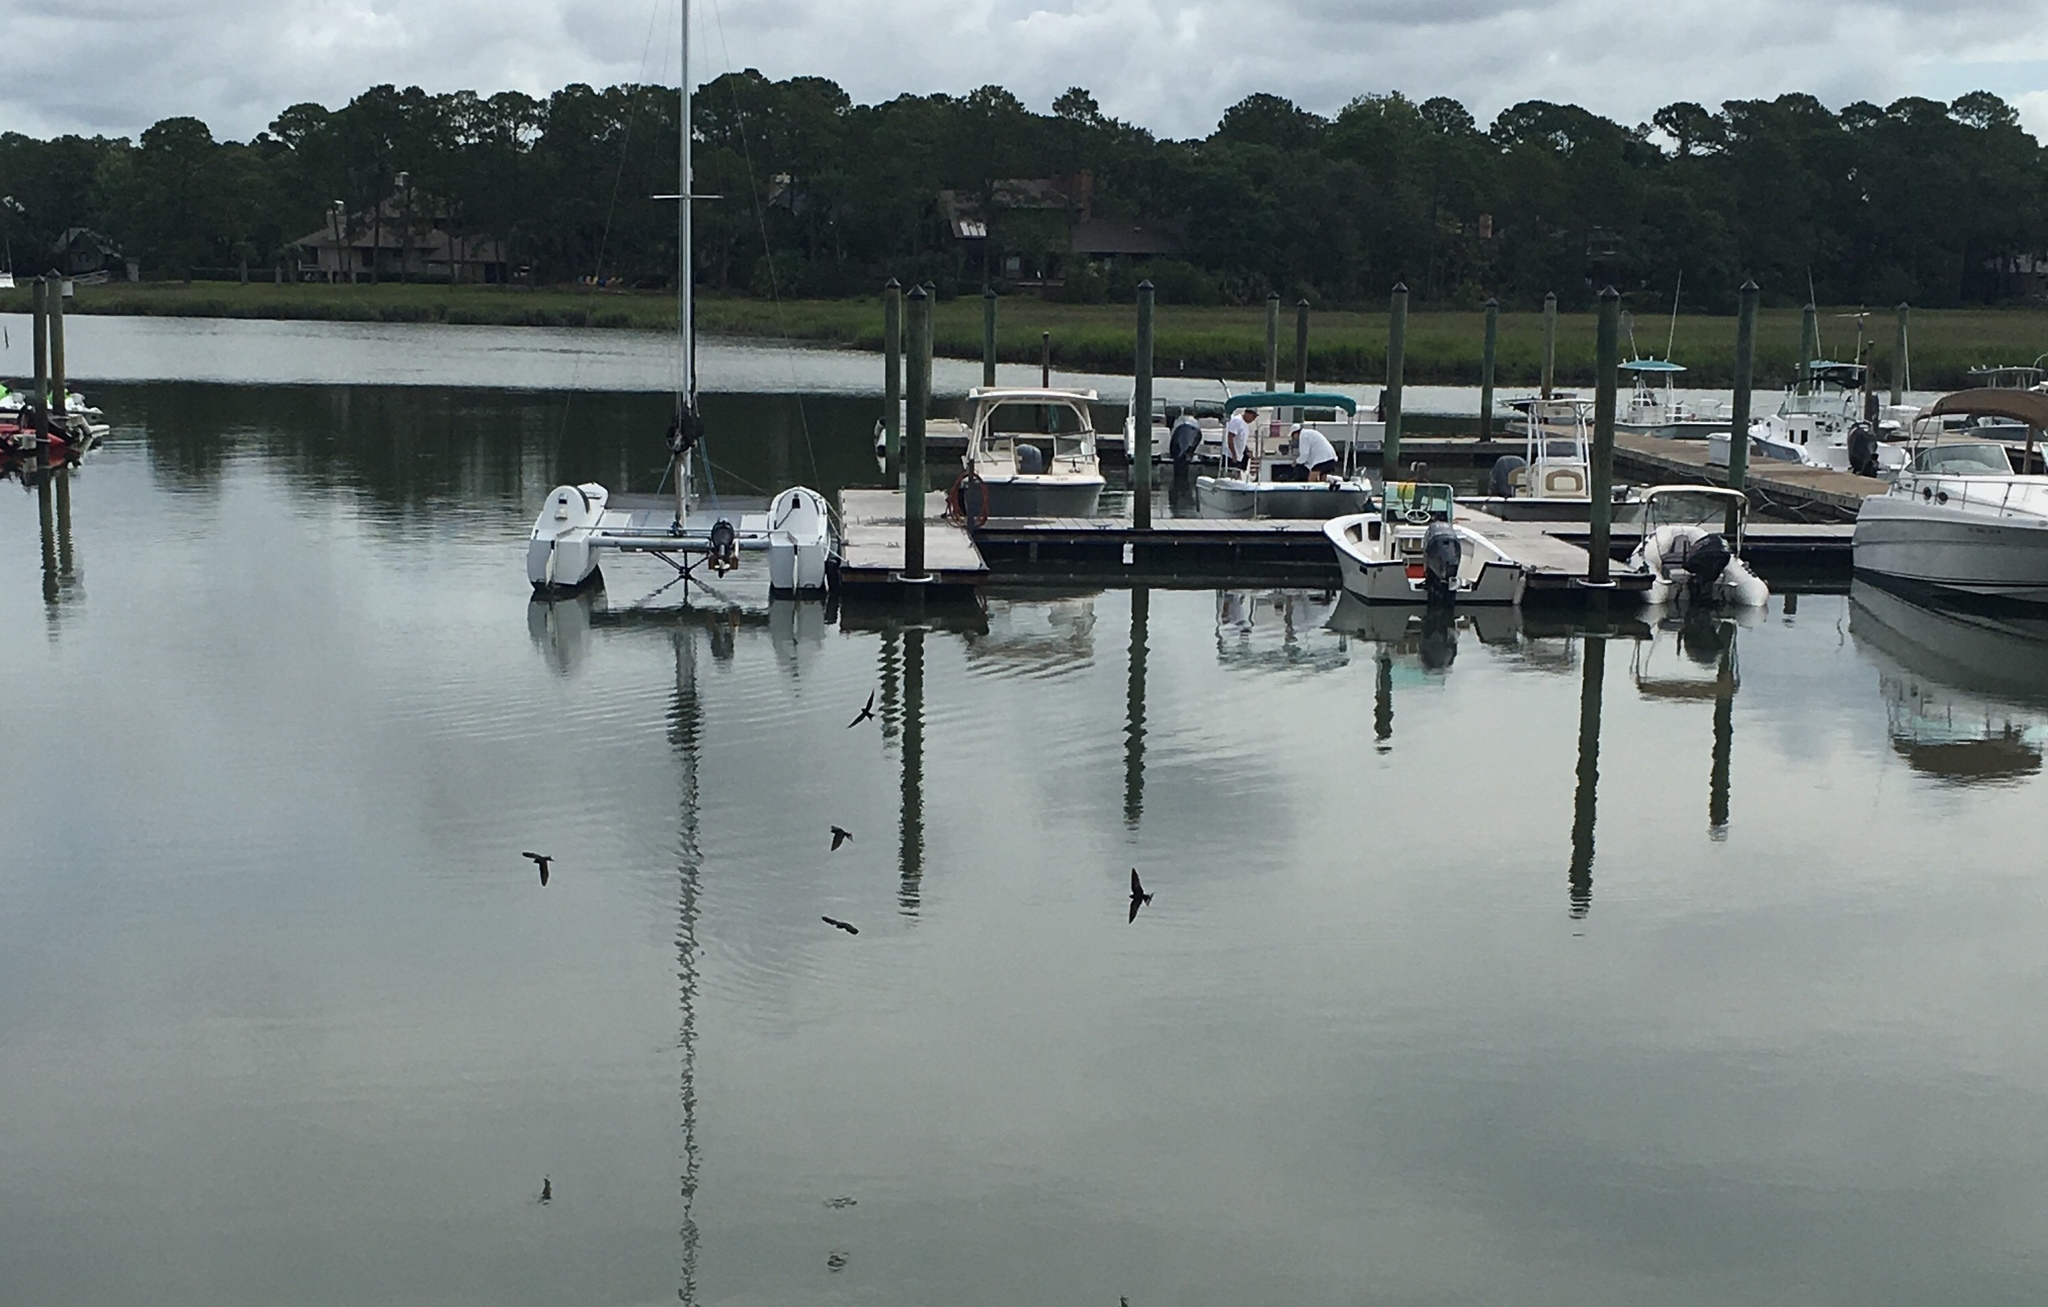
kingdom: Animalia
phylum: Chordata
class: Aves
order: Passeriformes
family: Hirundinidae
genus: Hirundo
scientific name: Hirundo rustica
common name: Barn swallow
